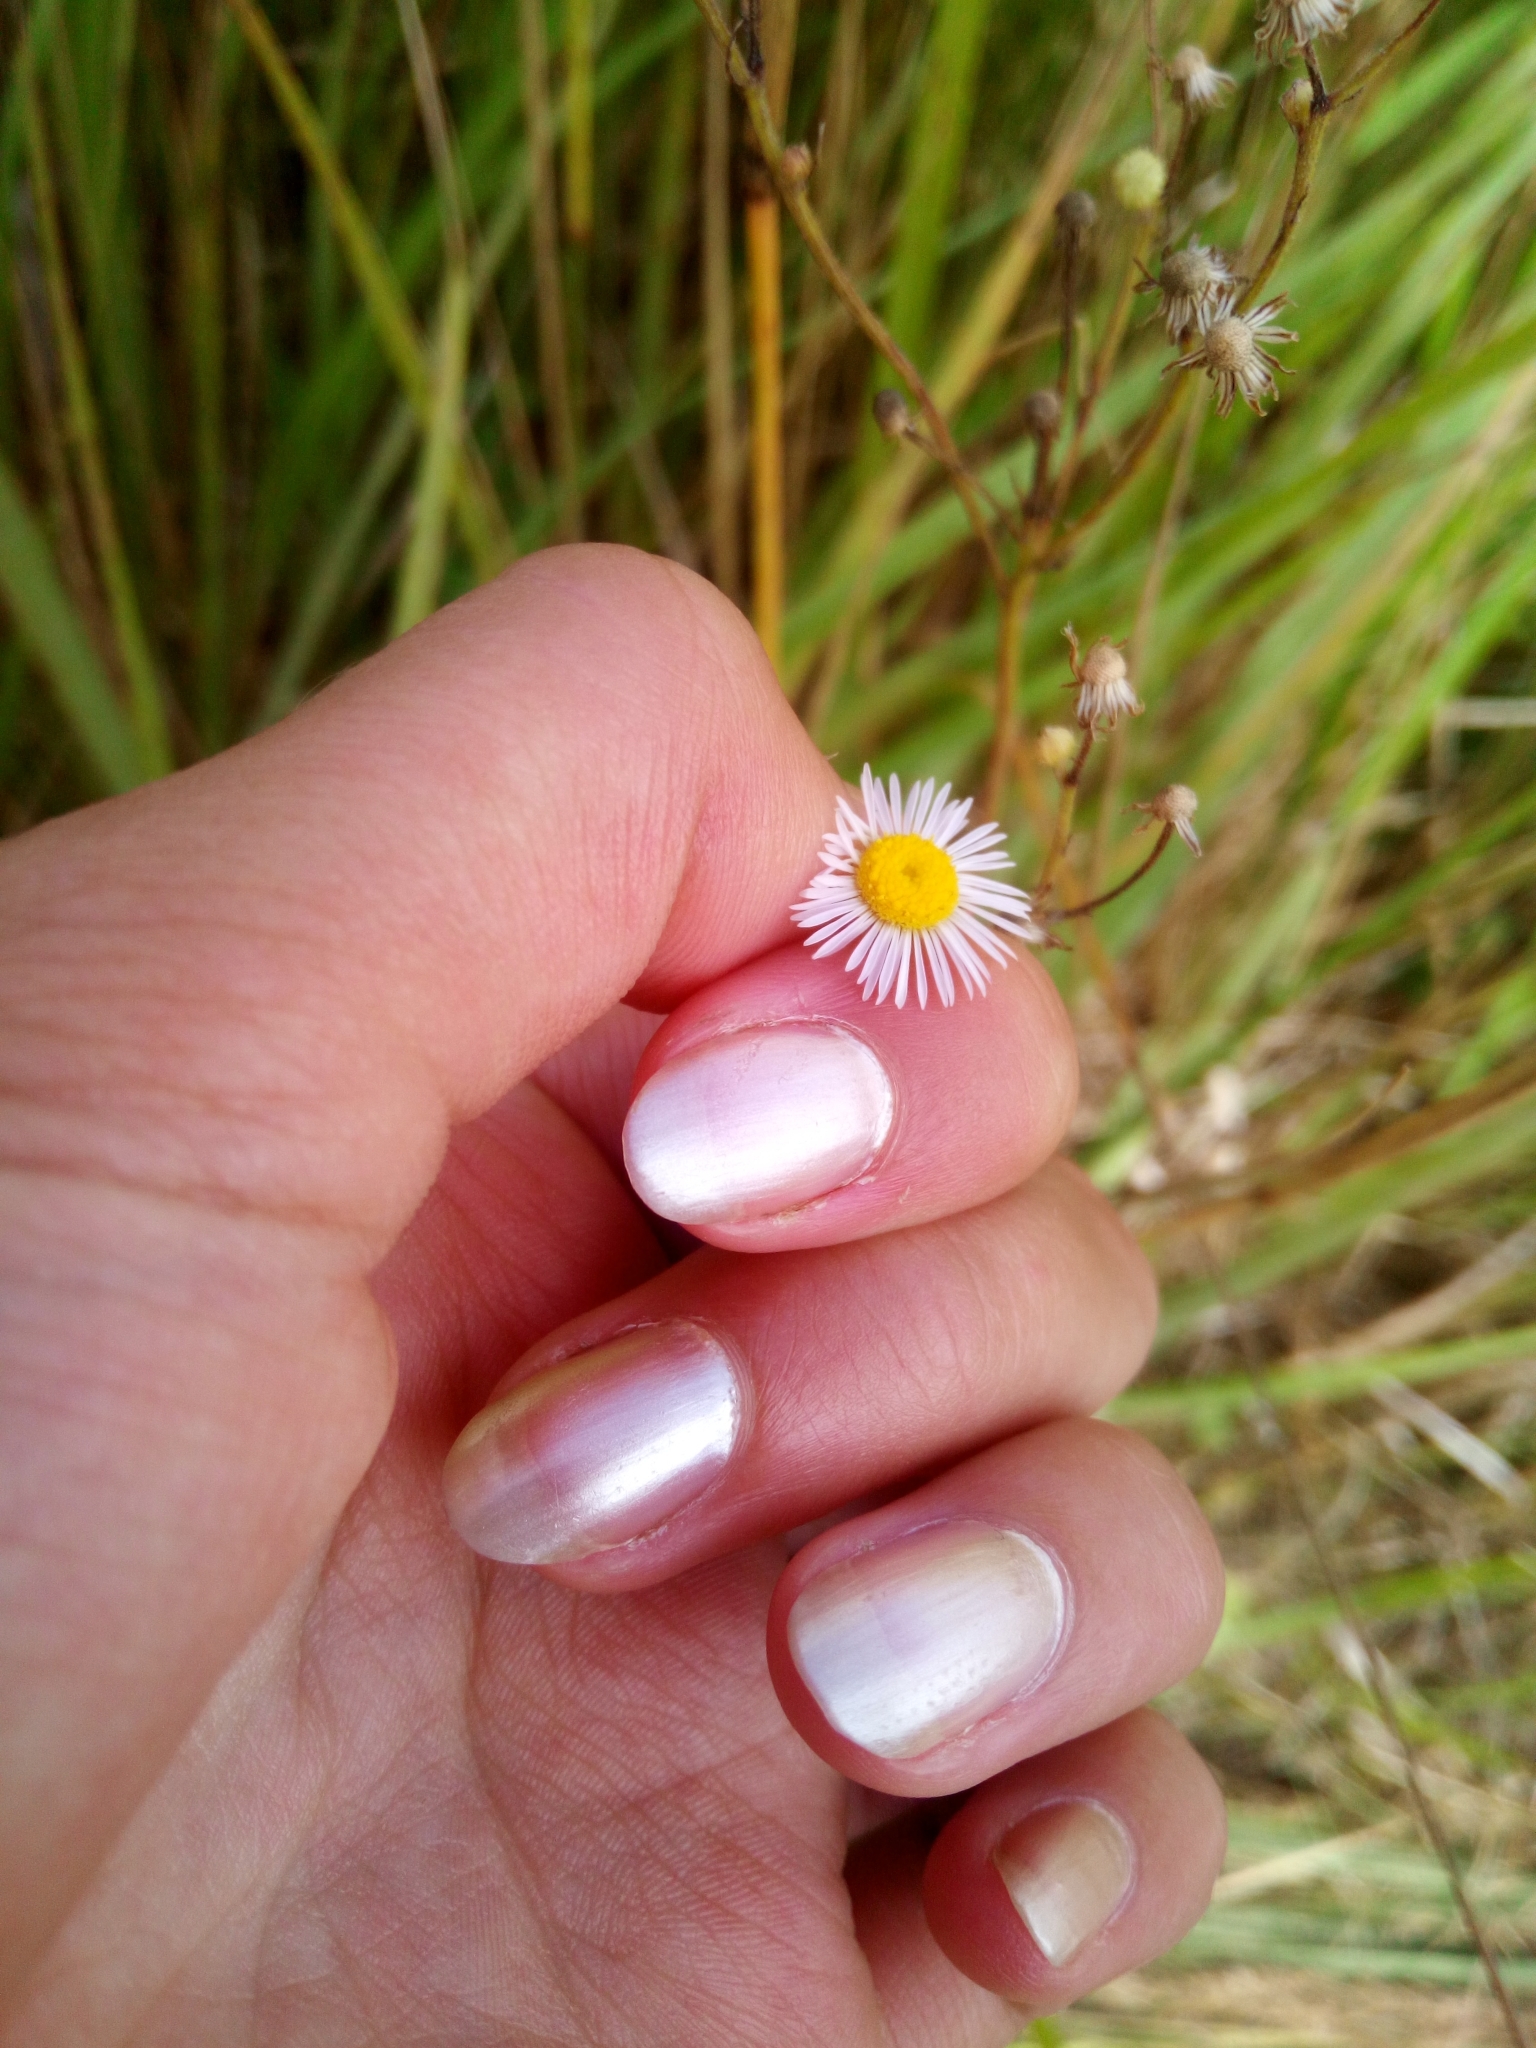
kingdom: Plantae
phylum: Tracheophyta
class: Magnoliopsida
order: Asterales
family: Asteraceae
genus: Erigeron
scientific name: Erigeron annuus
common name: Tall fleabane
